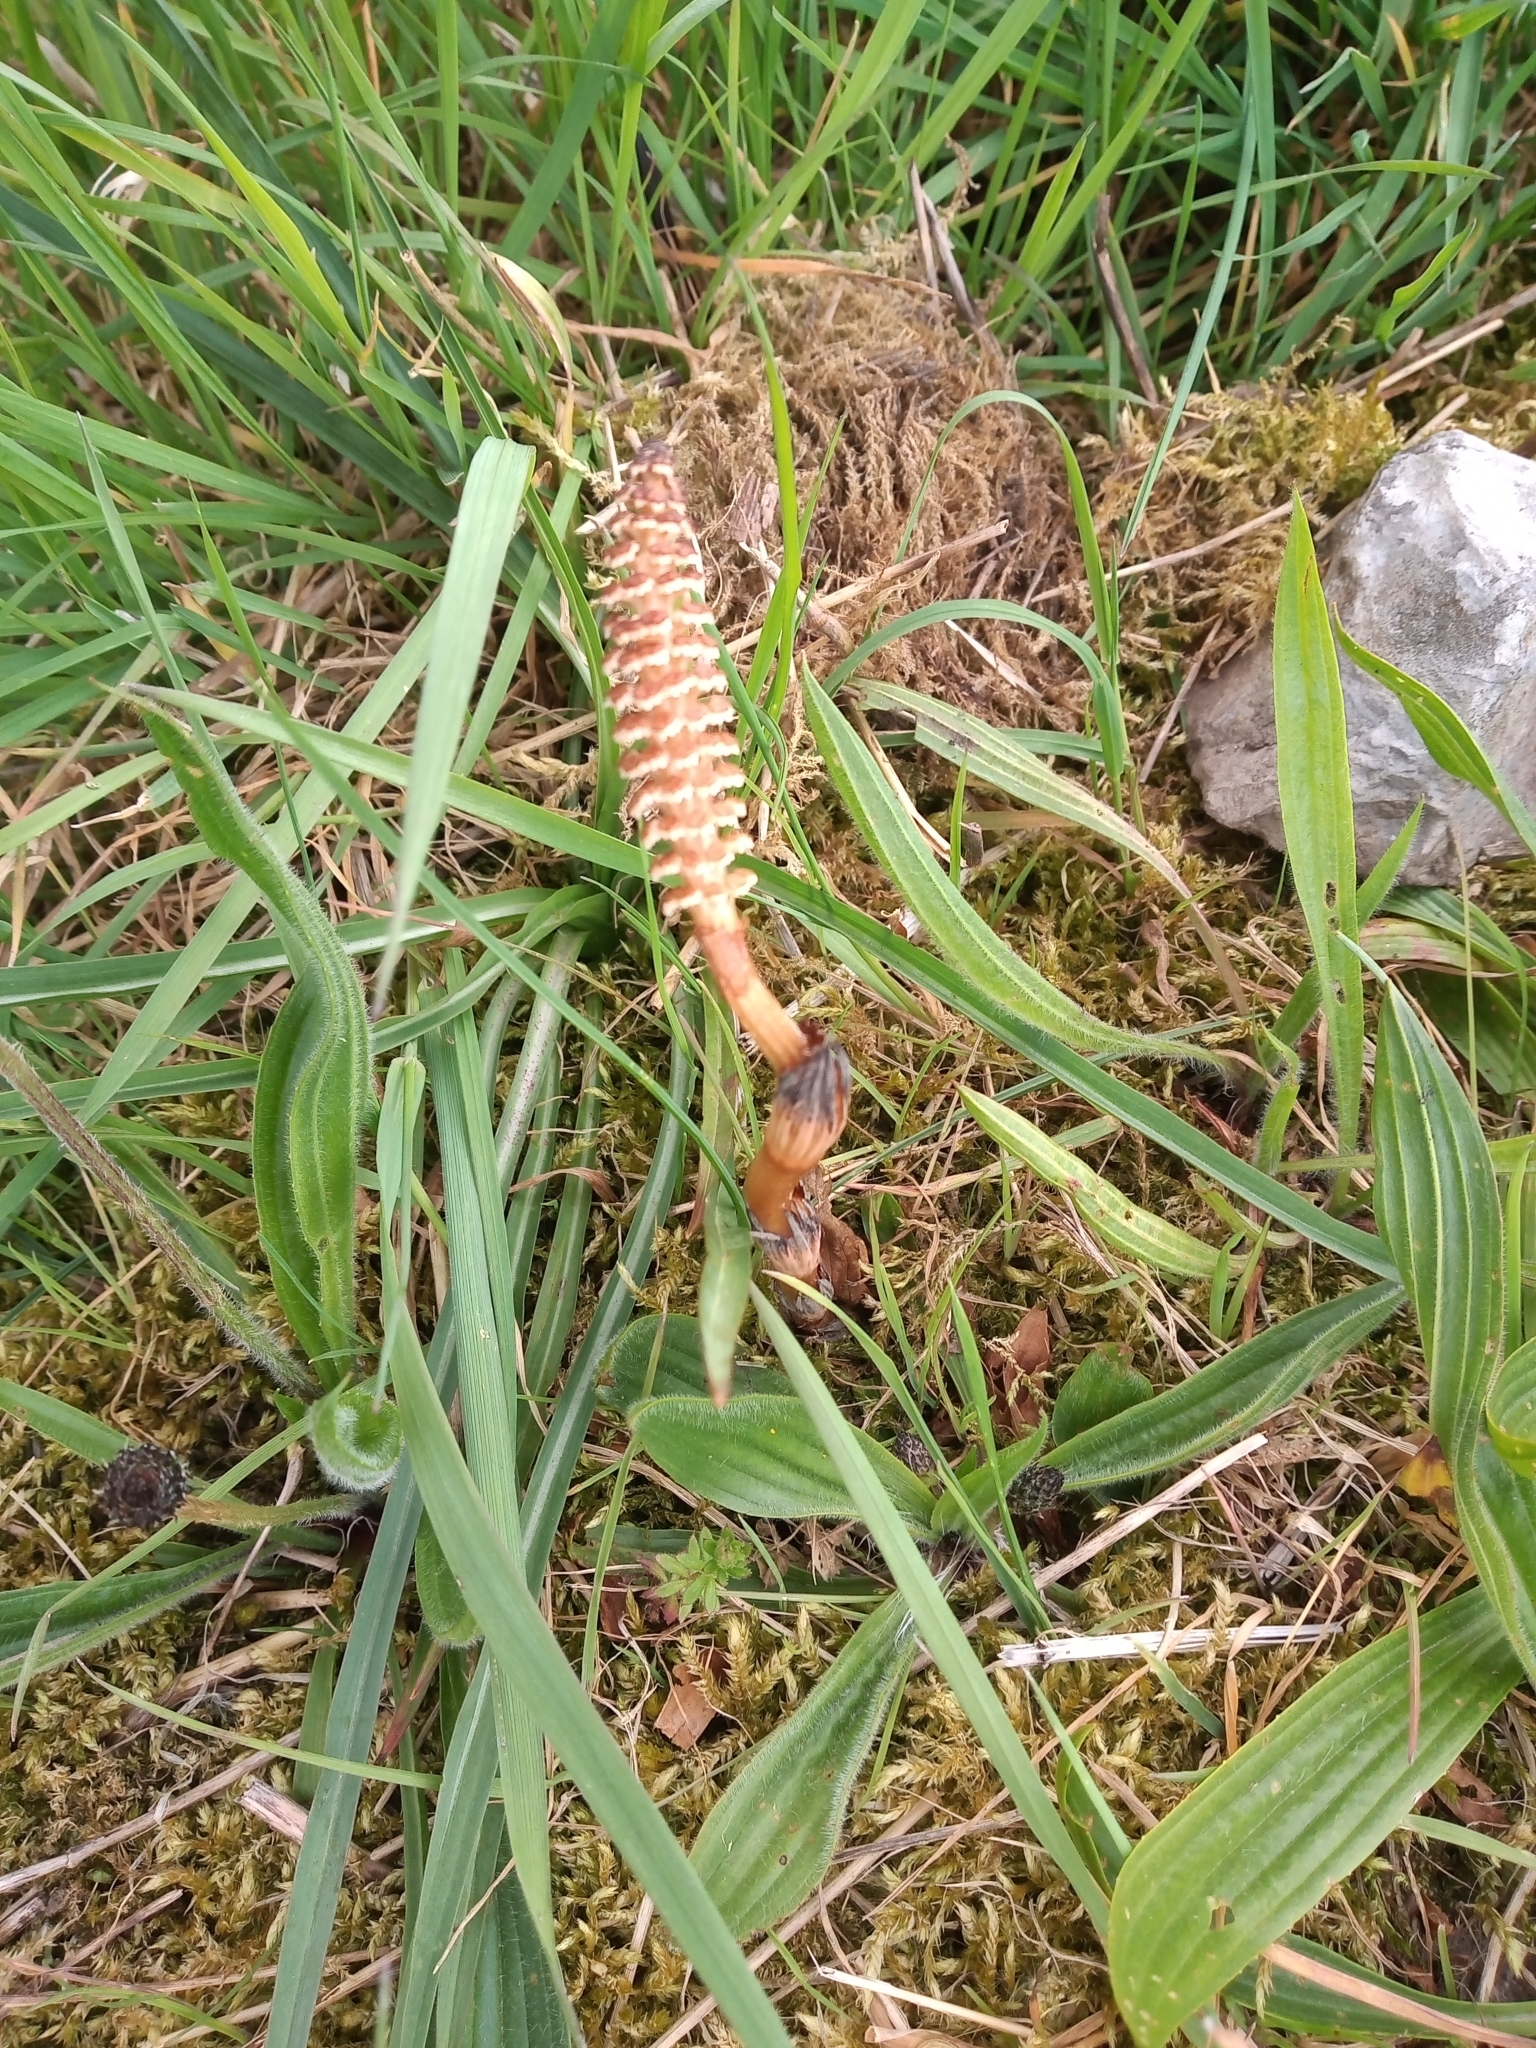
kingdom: Plantae
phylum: Tracheophyta
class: Polypodiopsida
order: Equisetales
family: Equisetaceae
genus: Equisetum
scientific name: Equisetum arvense
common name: Field horsetail
